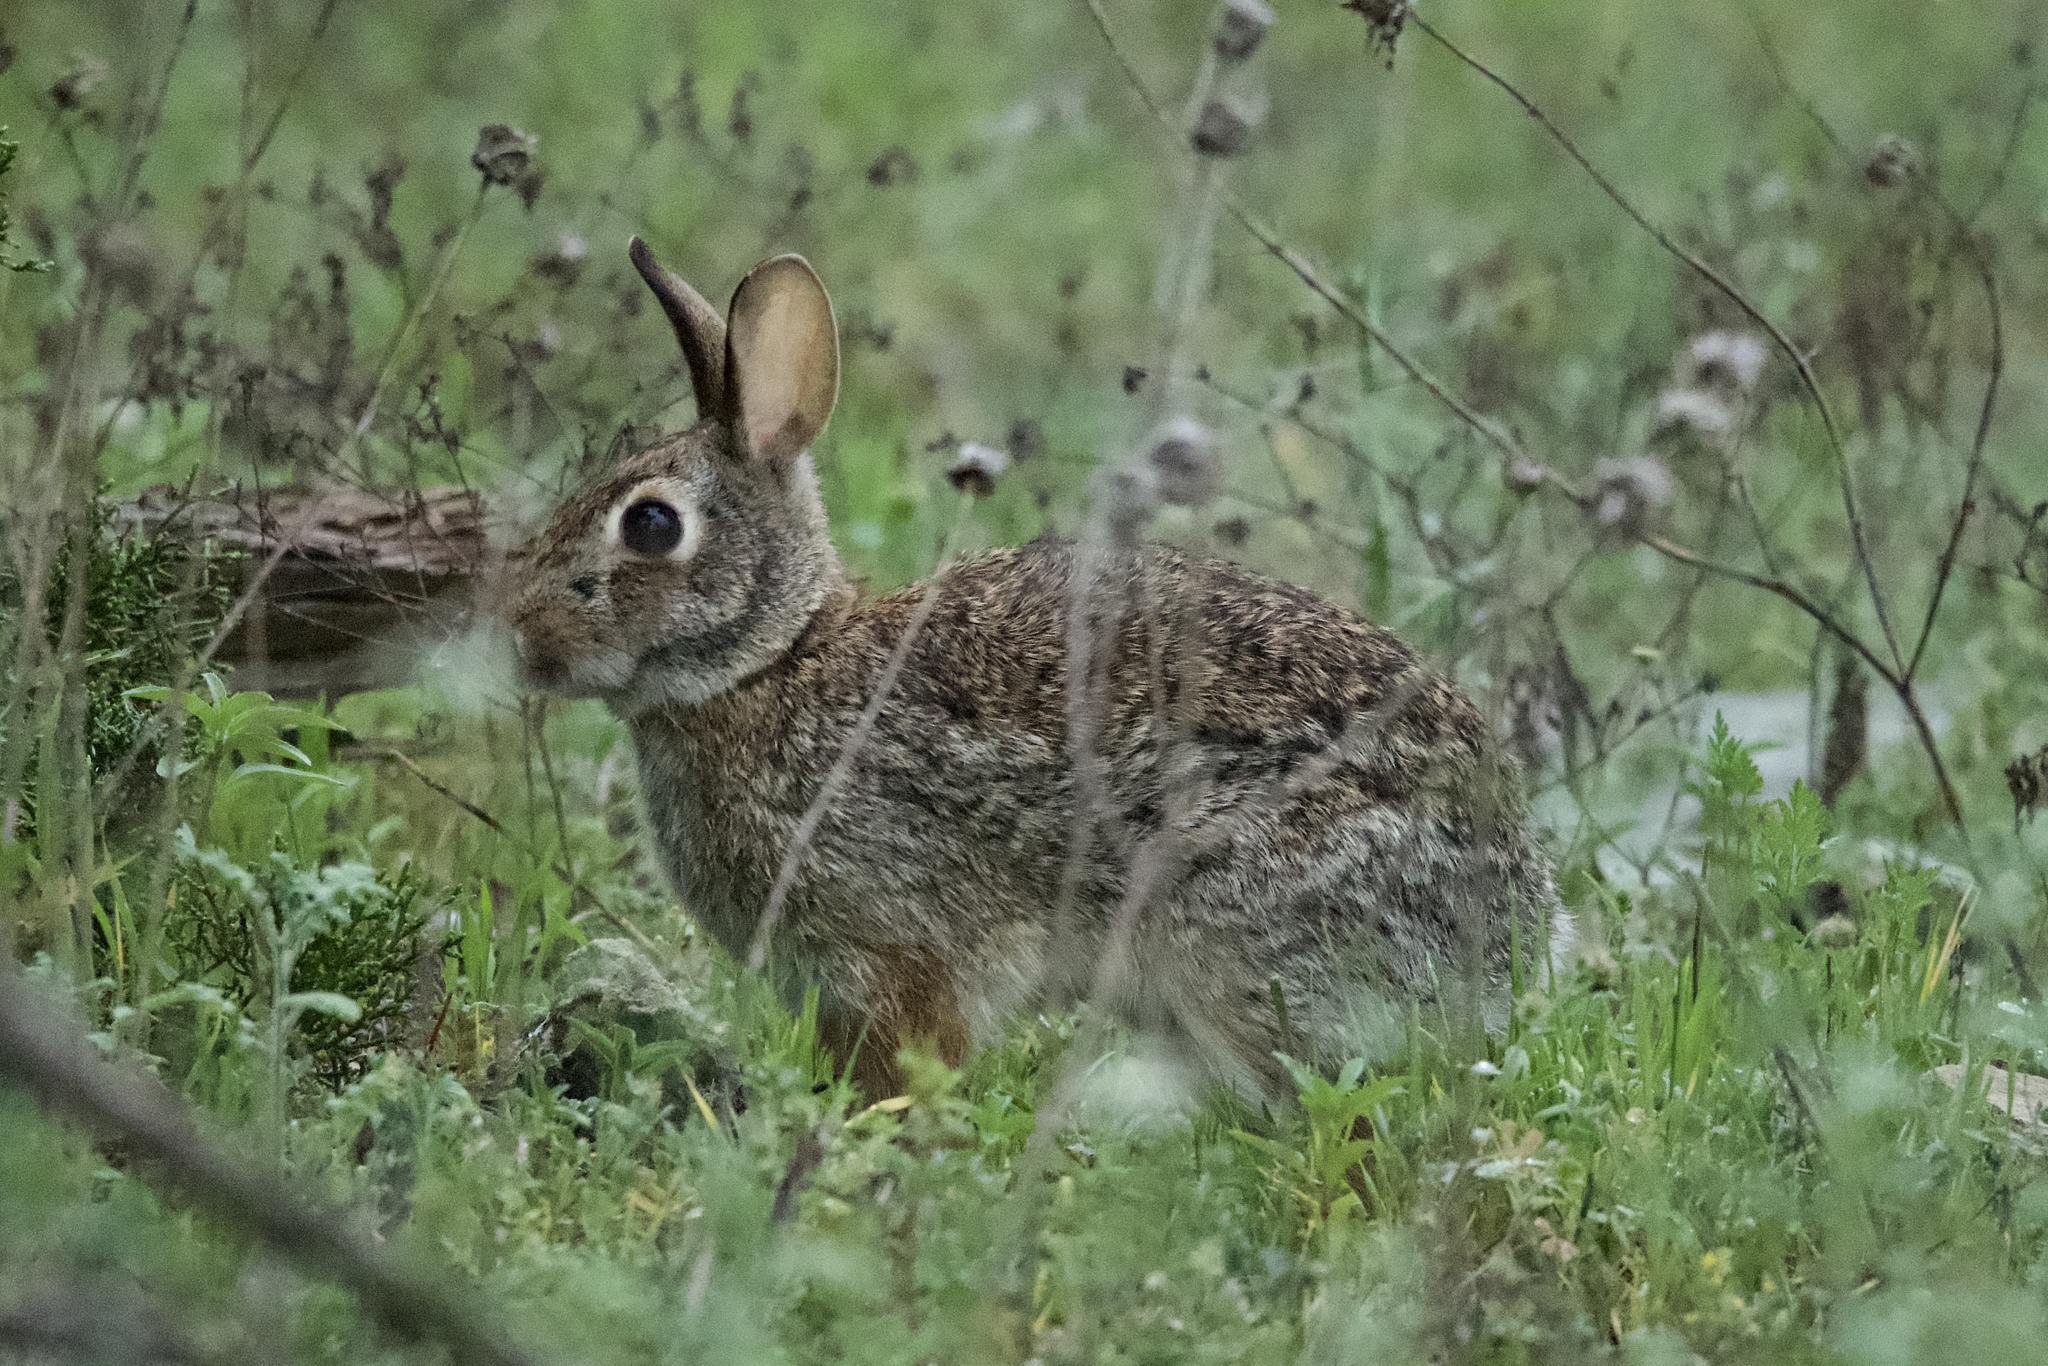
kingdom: Animalia
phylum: Chordata
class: Mammalia
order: Lagomorpha
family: Leporidae
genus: Sylvilagus
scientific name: Sylvilagus floridanus
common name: Eastern cottontail
